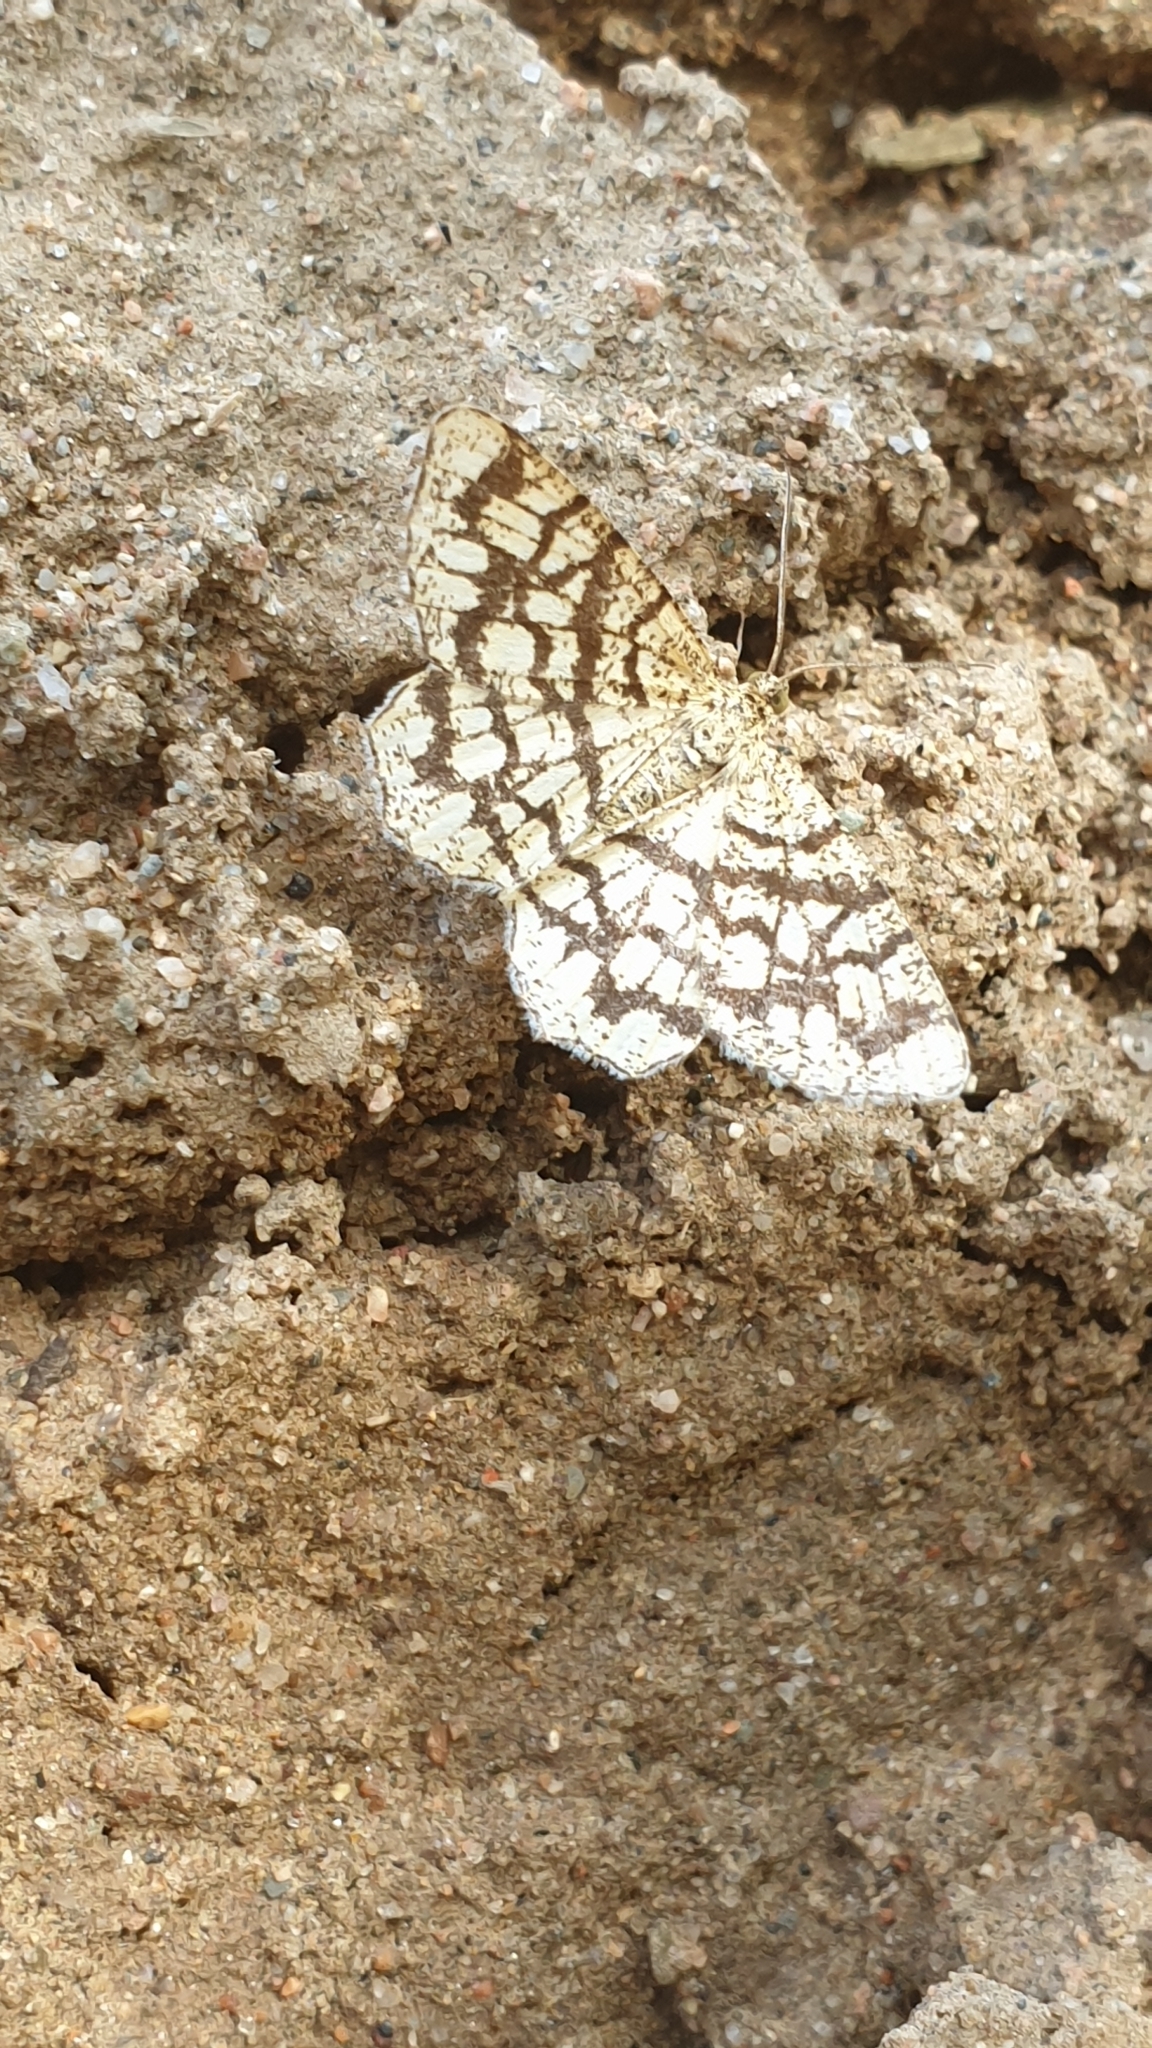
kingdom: Animalia
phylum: Arthropoda
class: Insecta
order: Lepidoptera
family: Geometridae
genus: Chiasmia
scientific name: Chiasmia clathrata
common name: Latticed heath
